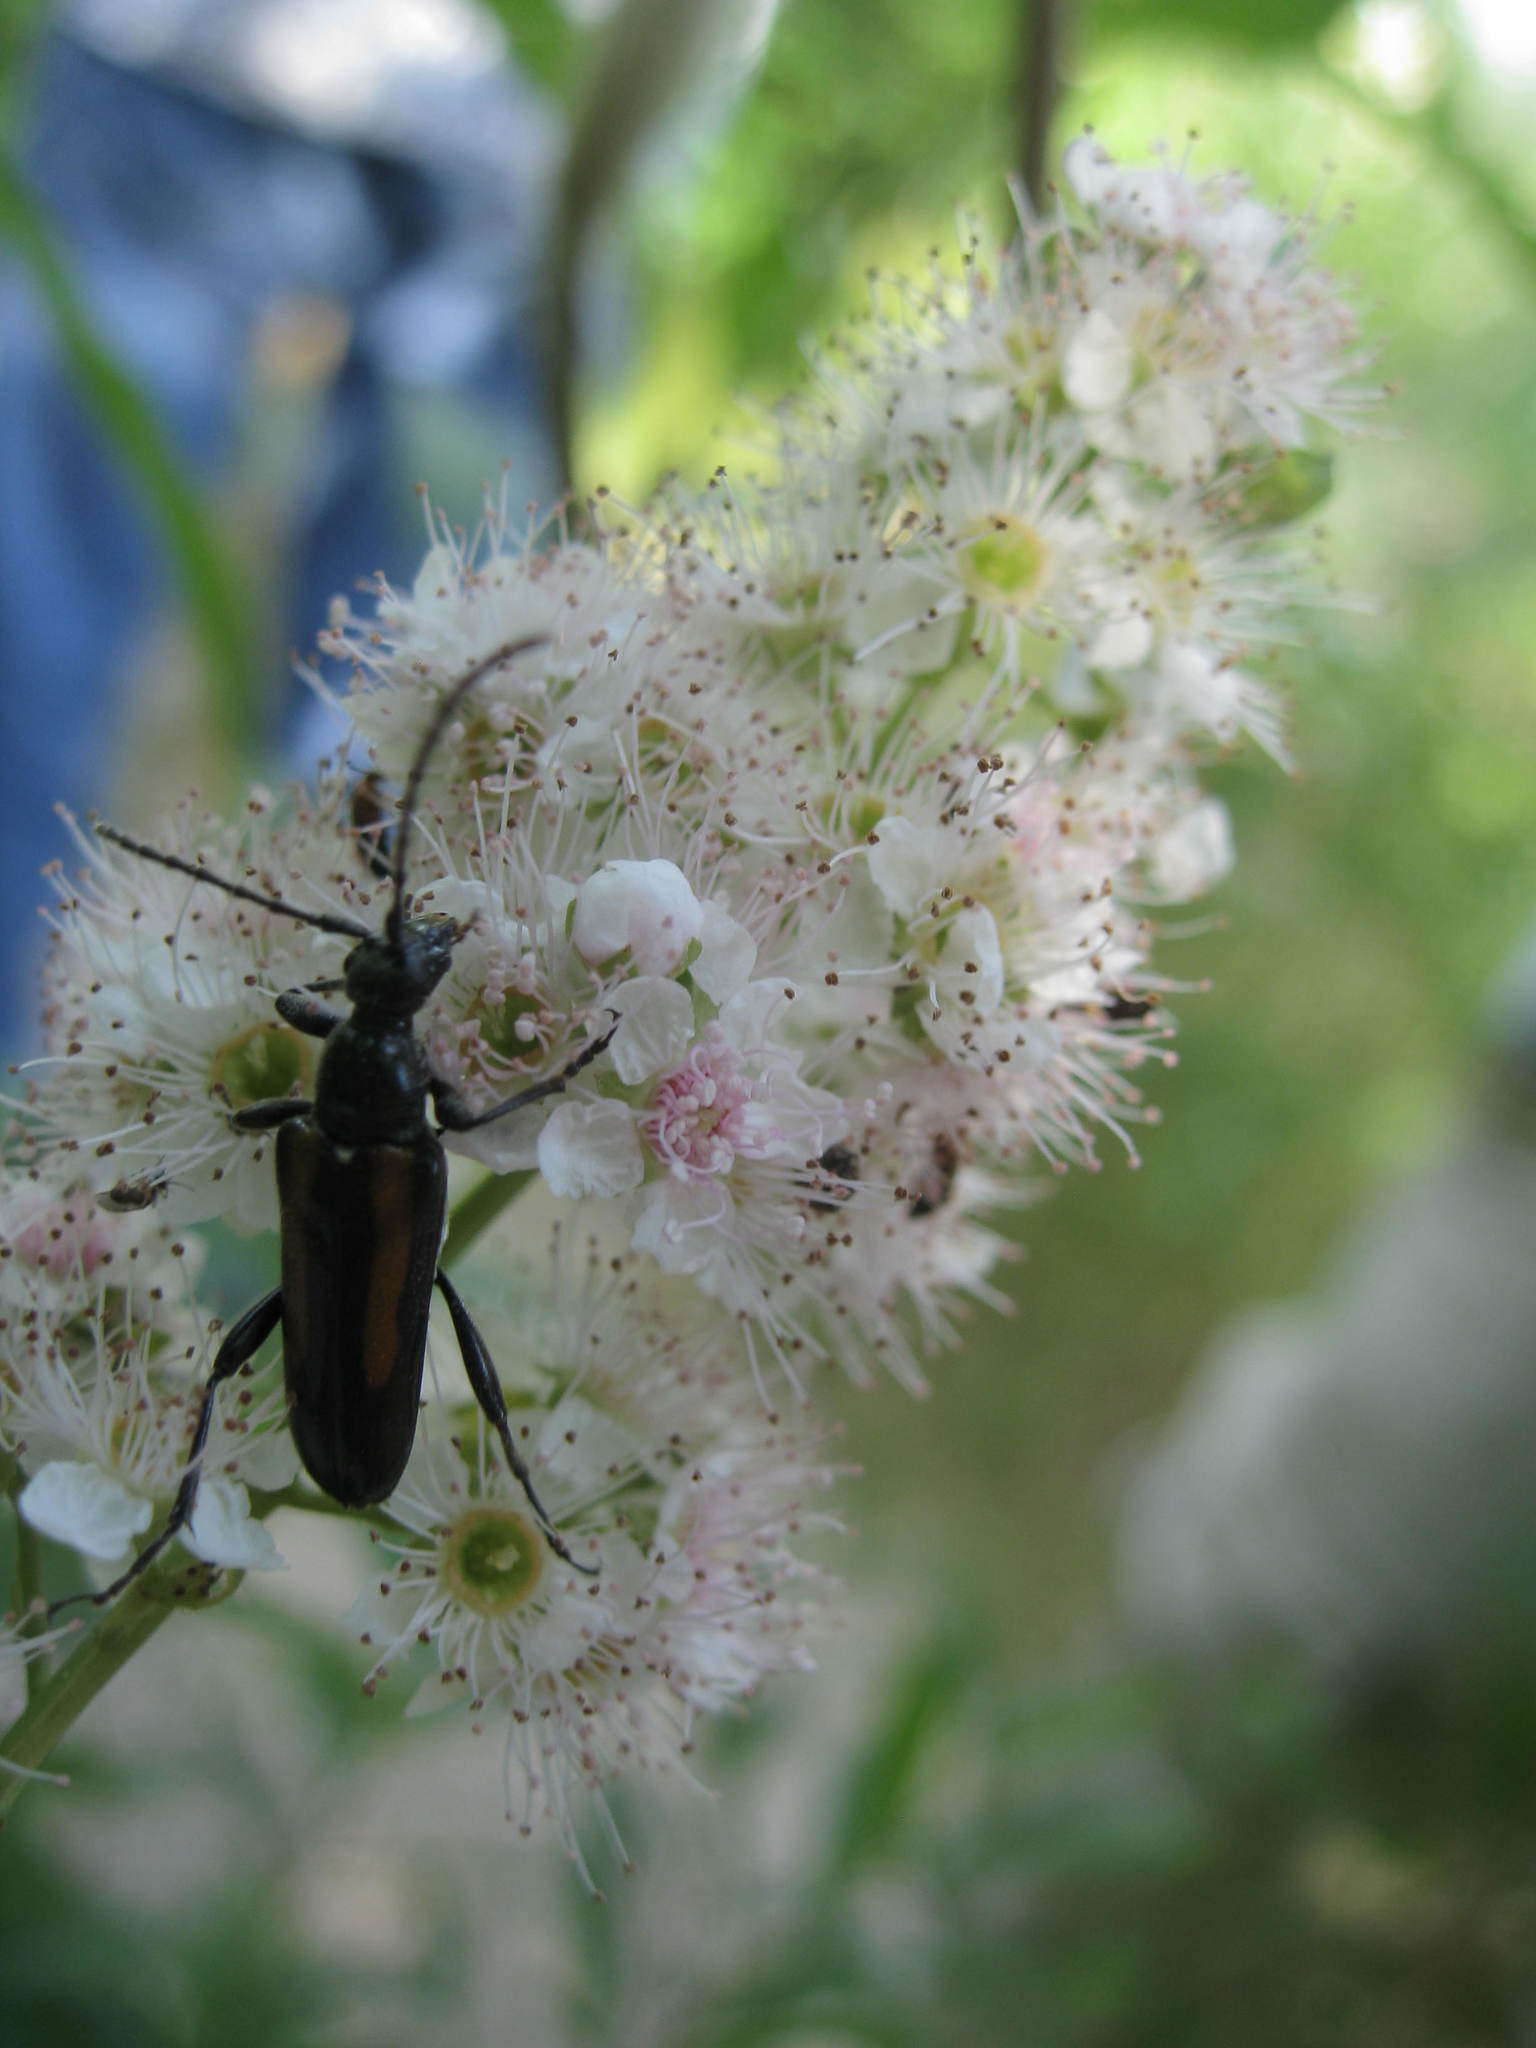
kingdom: Animalia
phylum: Arthropoda
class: Insecta
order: Coleoptera
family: Cerambycidae
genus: Strangalepta
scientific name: Strangalepta abbreviata
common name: Strangalepta flower longhorn beetle
